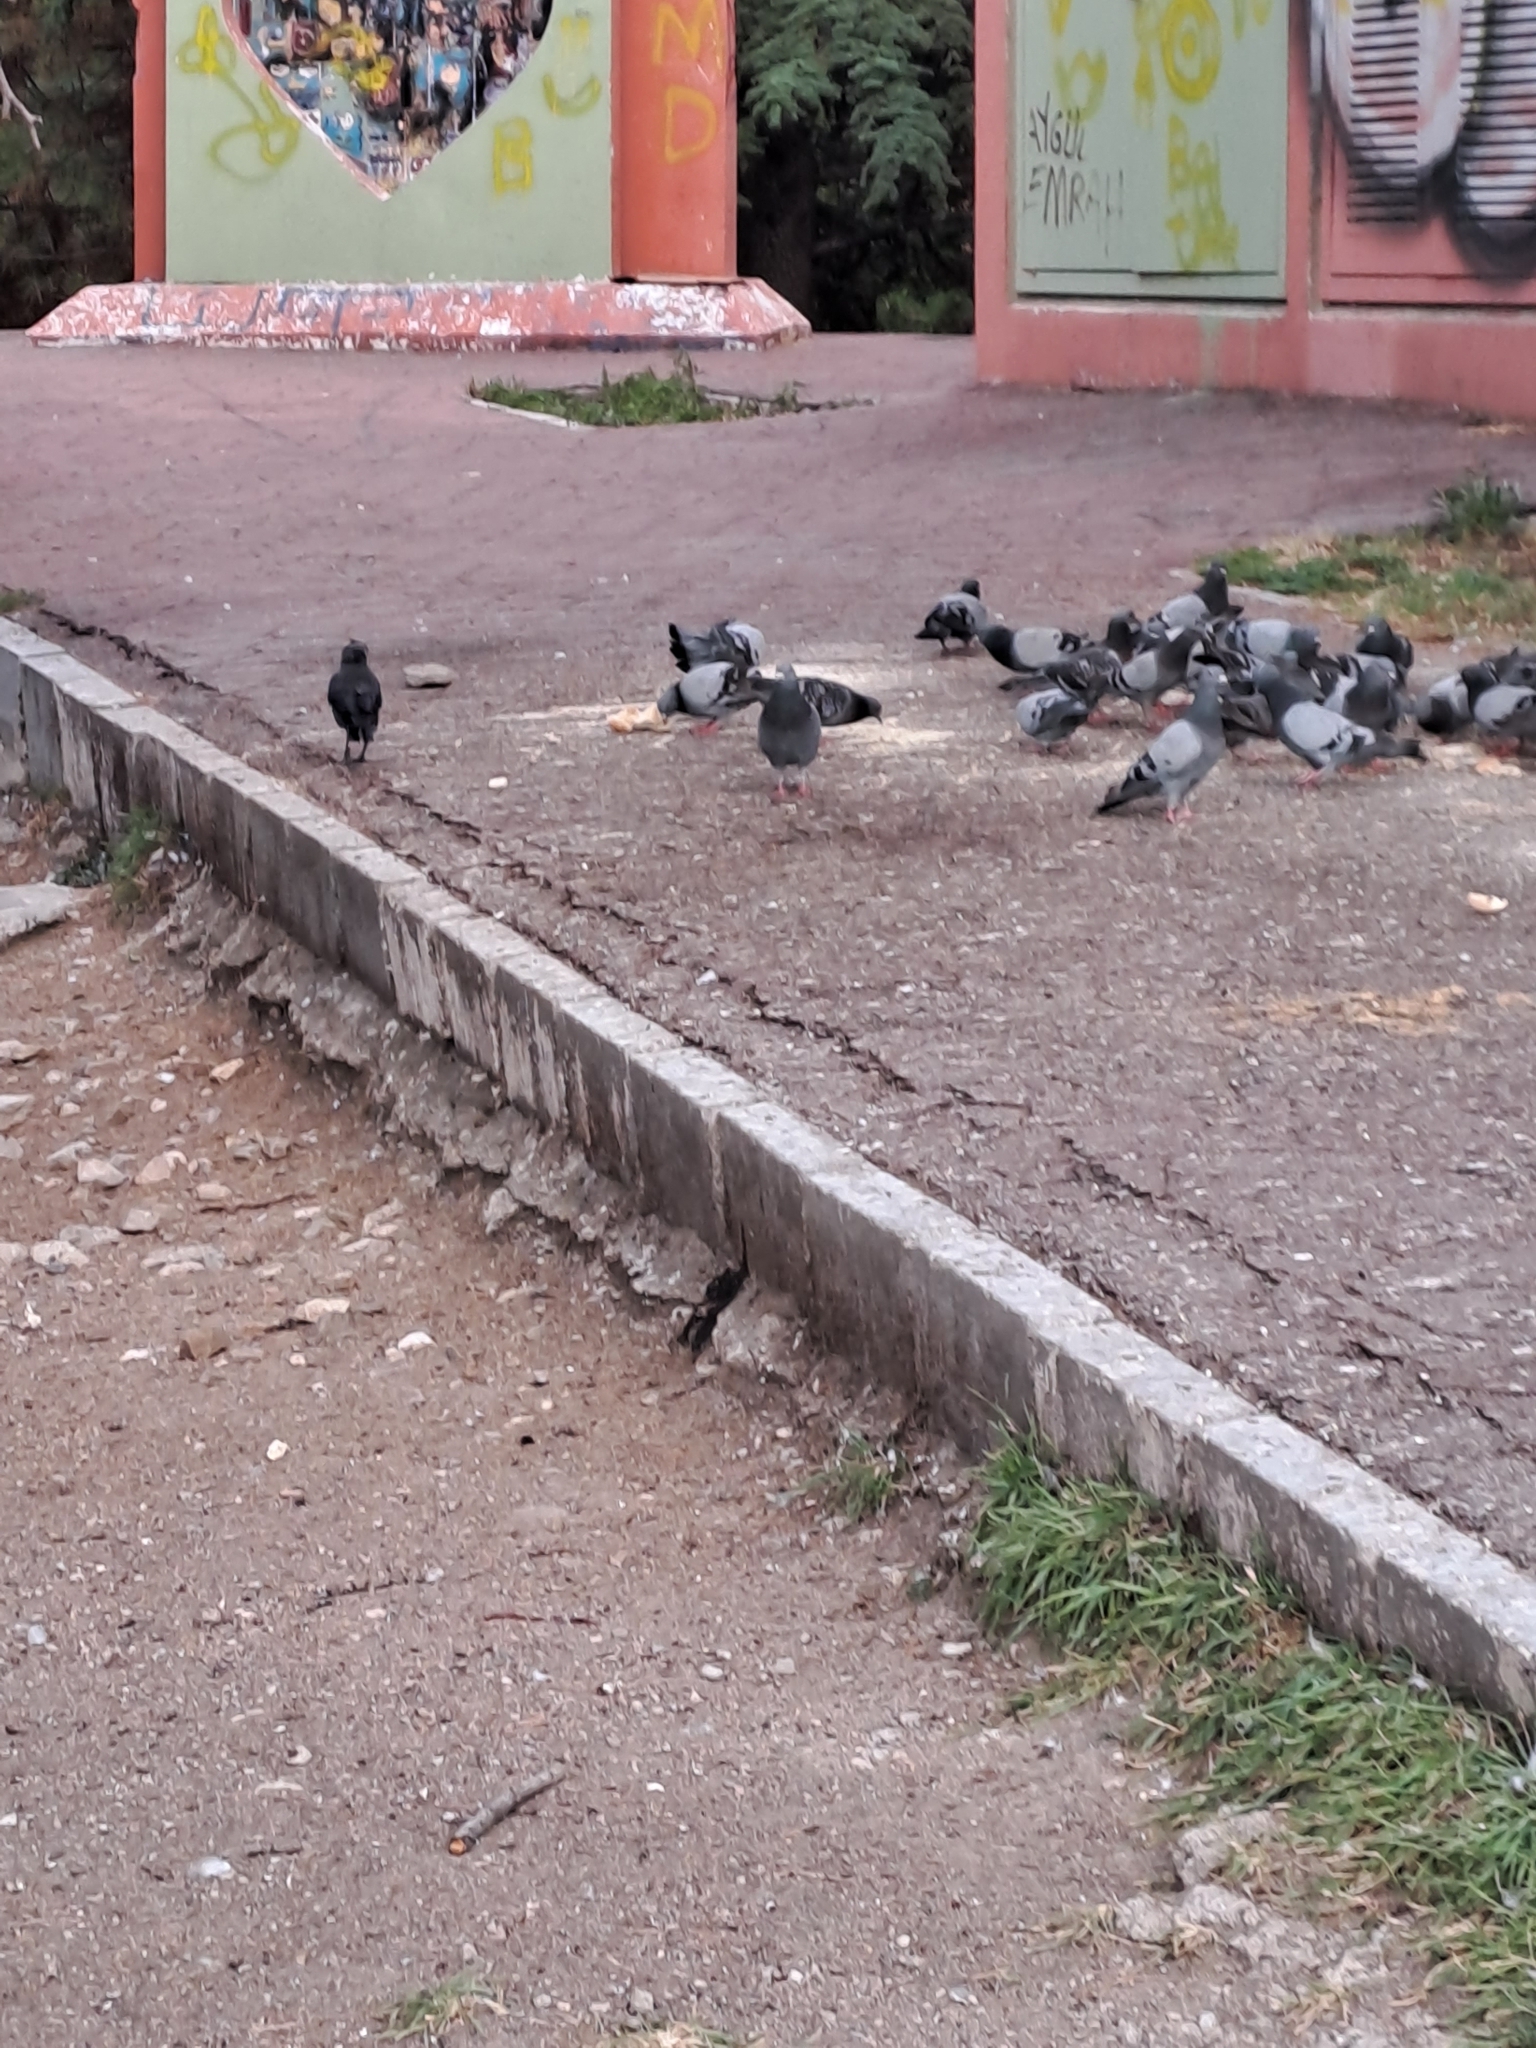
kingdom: Animalia
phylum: Chordata
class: Aves
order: Columbiformes
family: Columbidae
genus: Columba
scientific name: Columba livia
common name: Rock pigeon
